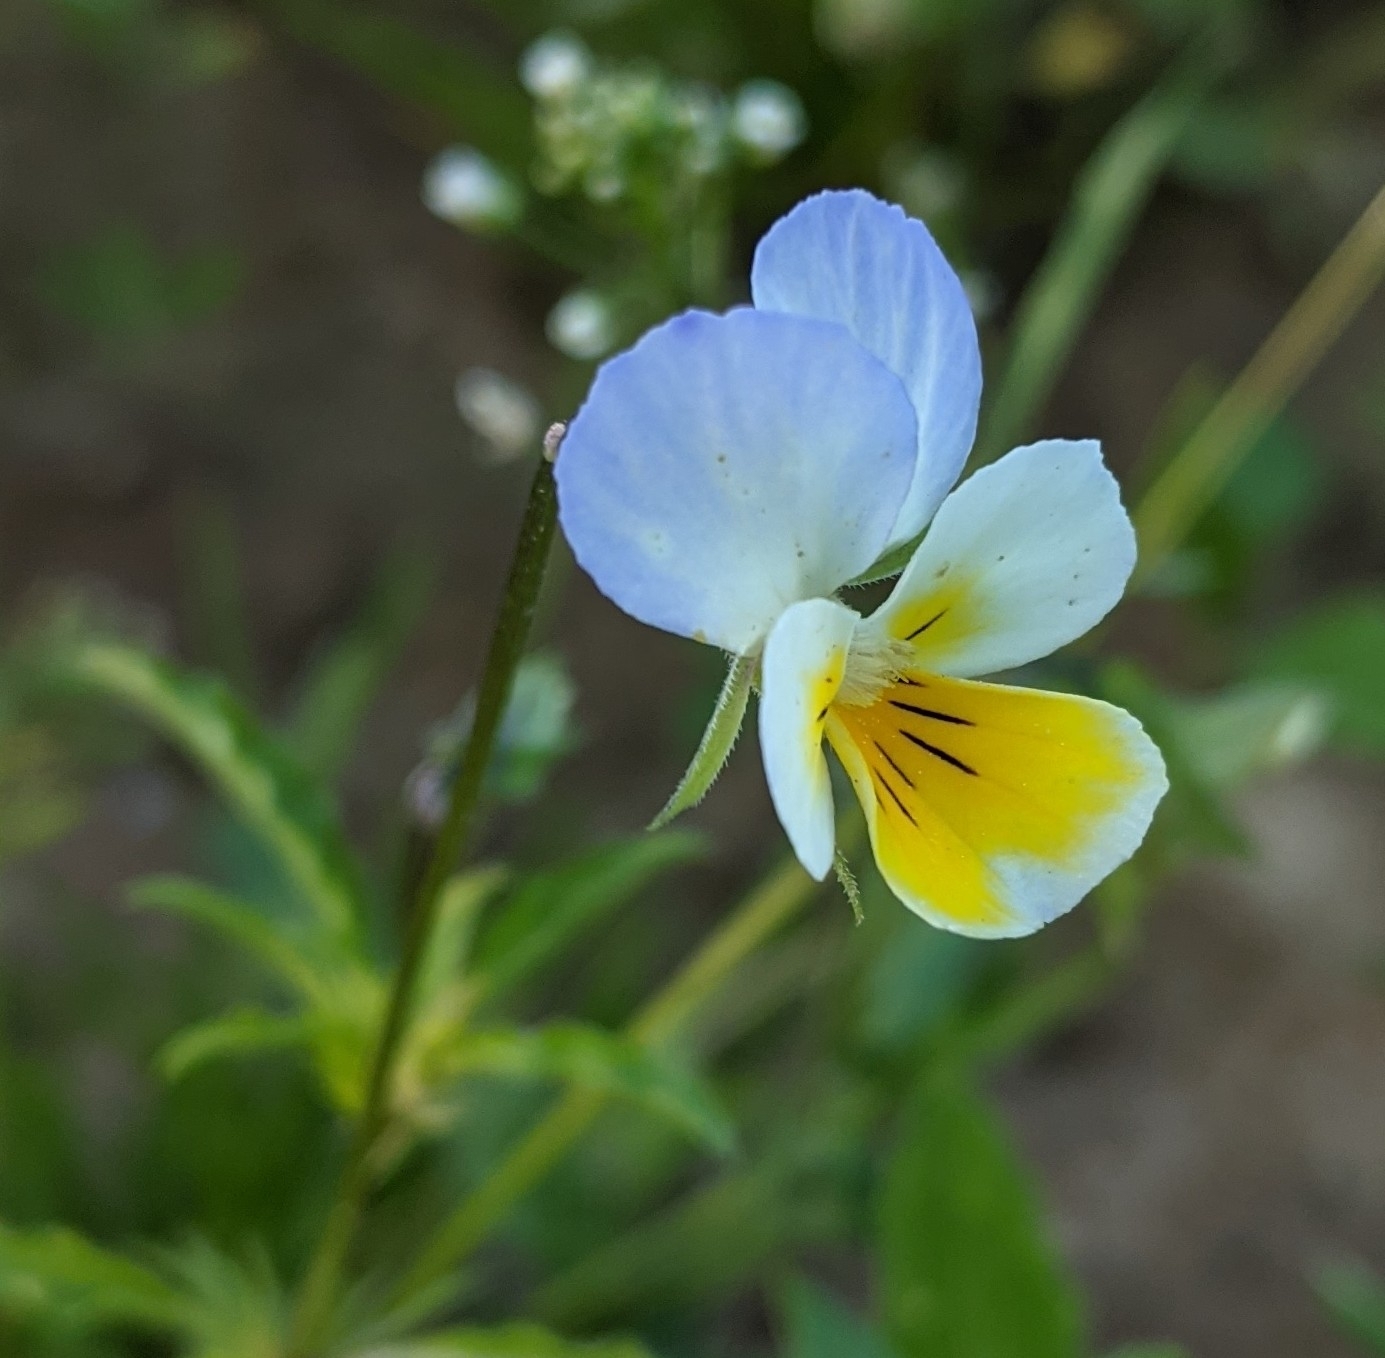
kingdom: Plantae
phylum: Tracheophyta
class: Magnoliopsida
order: Malpighiales
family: Violaceae
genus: Viola
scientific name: Viola tricolor
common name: Pansy
